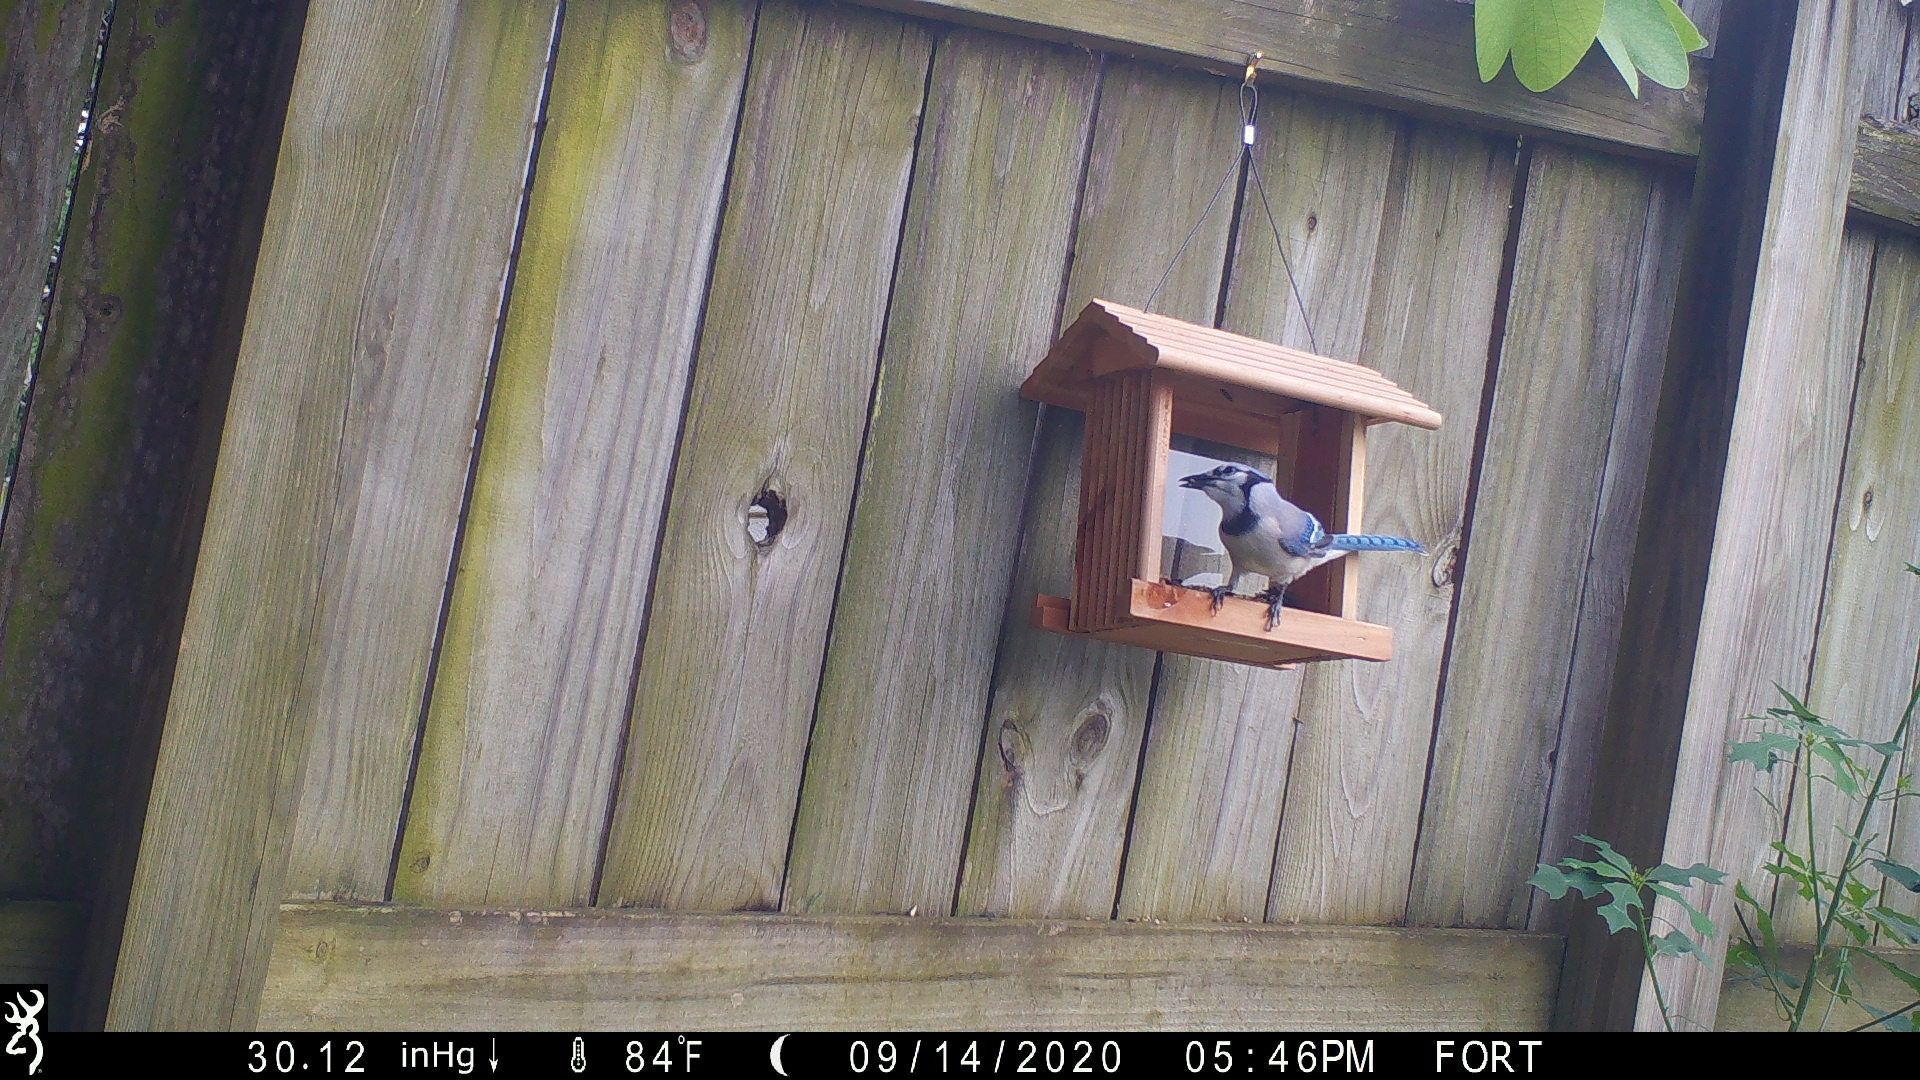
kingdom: Animalia
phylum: Chordata
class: Aves
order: Passeriformes
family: Corvidae
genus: Cyanocitta
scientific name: Cyanocitta cristata
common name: Blue jay
